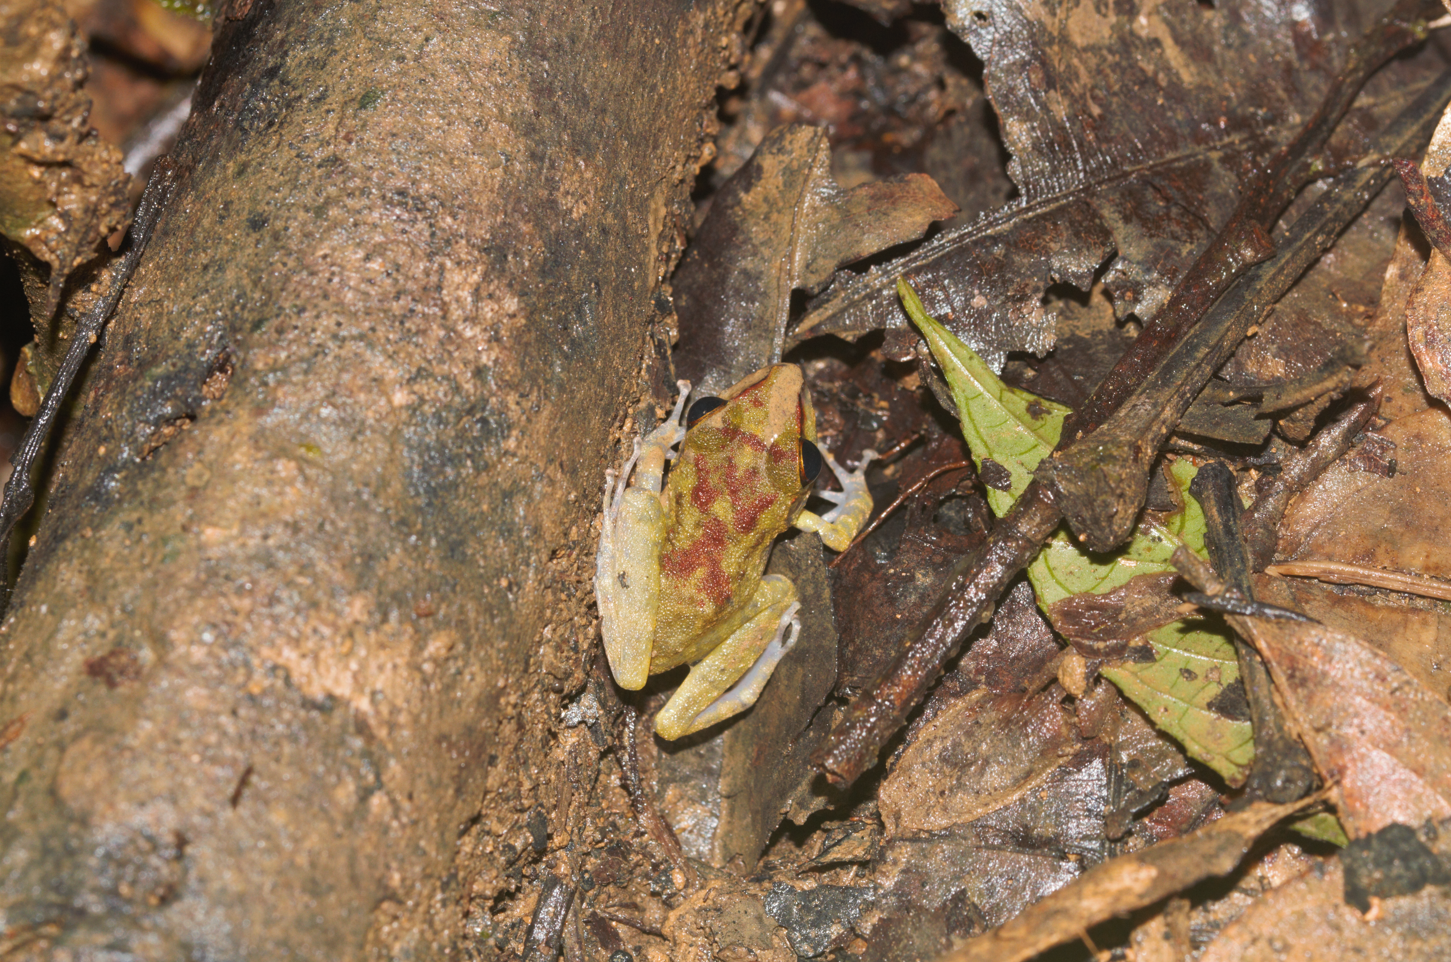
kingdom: Animalia
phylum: Chordata
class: Amphibia
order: Anura
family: Craugastoridae
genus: Pristimantis
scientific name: Pristimantis zeuctotylus
